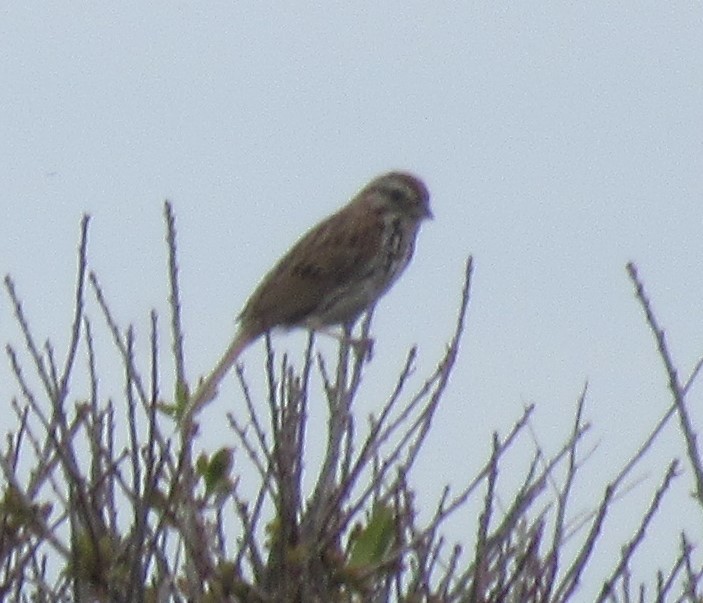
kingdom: Animalia
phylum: Chordata
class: Aves
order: Passeriformes
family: Passerellidae
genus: Melospiza
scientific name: Melospiza melodia
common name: Song sparrow
